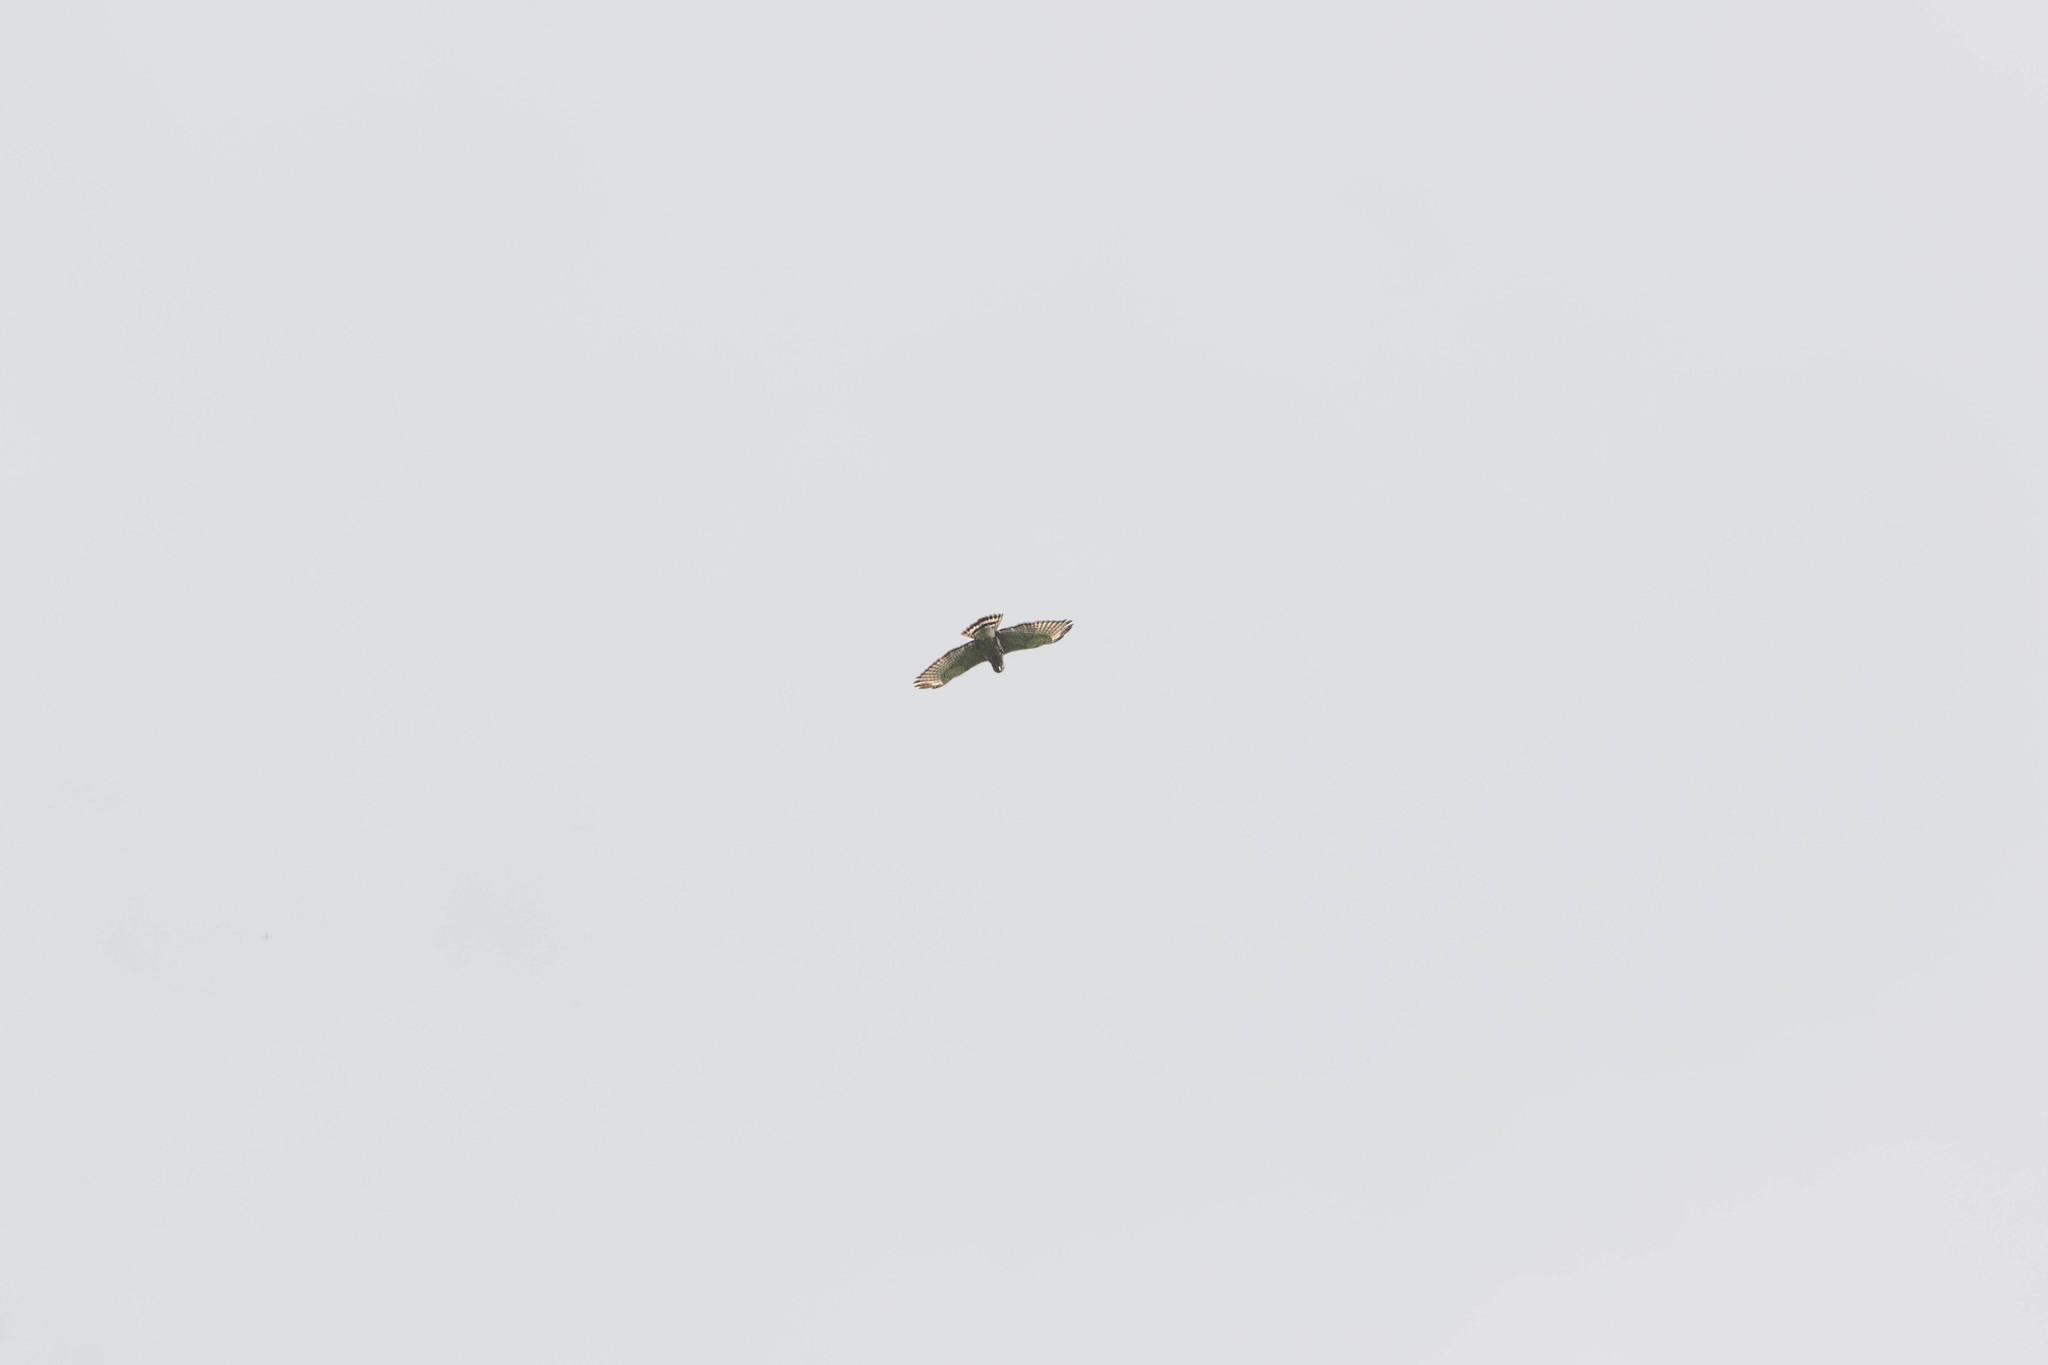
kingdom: Animalia
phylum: Chordata
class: Aves
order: Accipitriformes
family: Accipitridae
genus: Buteo
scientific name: Buteo platypterus
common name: Broad-winged hawk
